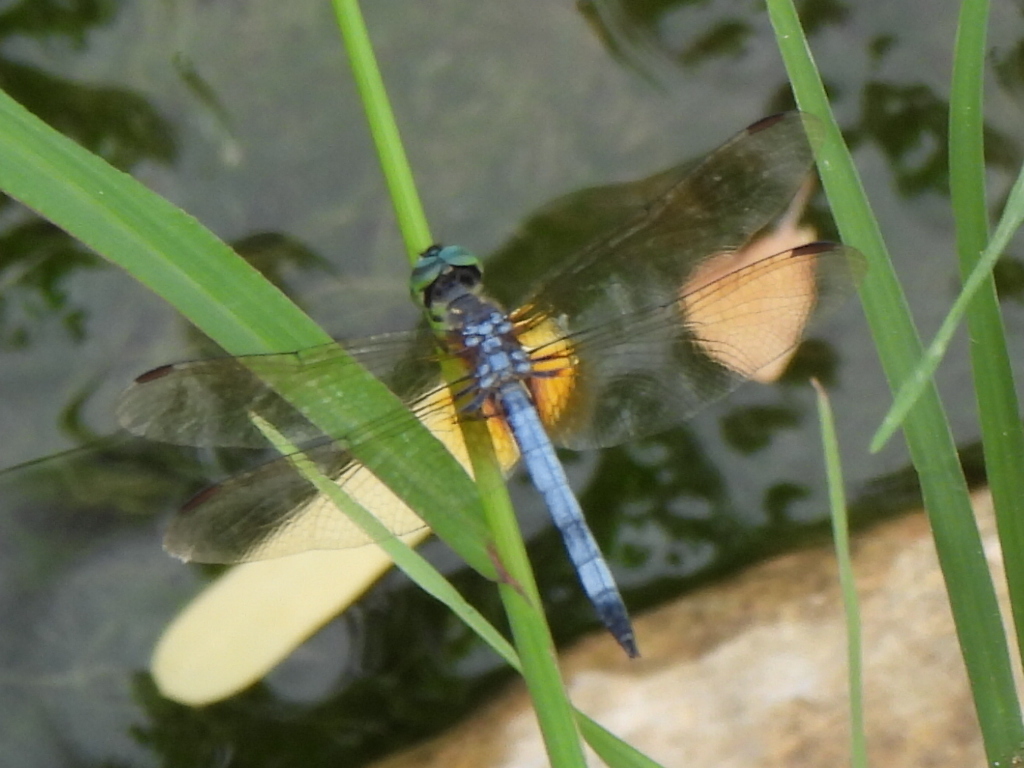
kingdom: Animalia
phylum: Arthropoda
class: Insecta
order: Odonata
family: Libellulidae
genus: Pachydiplax
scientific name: Pachydiplax longipennis
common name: Blue dasher
